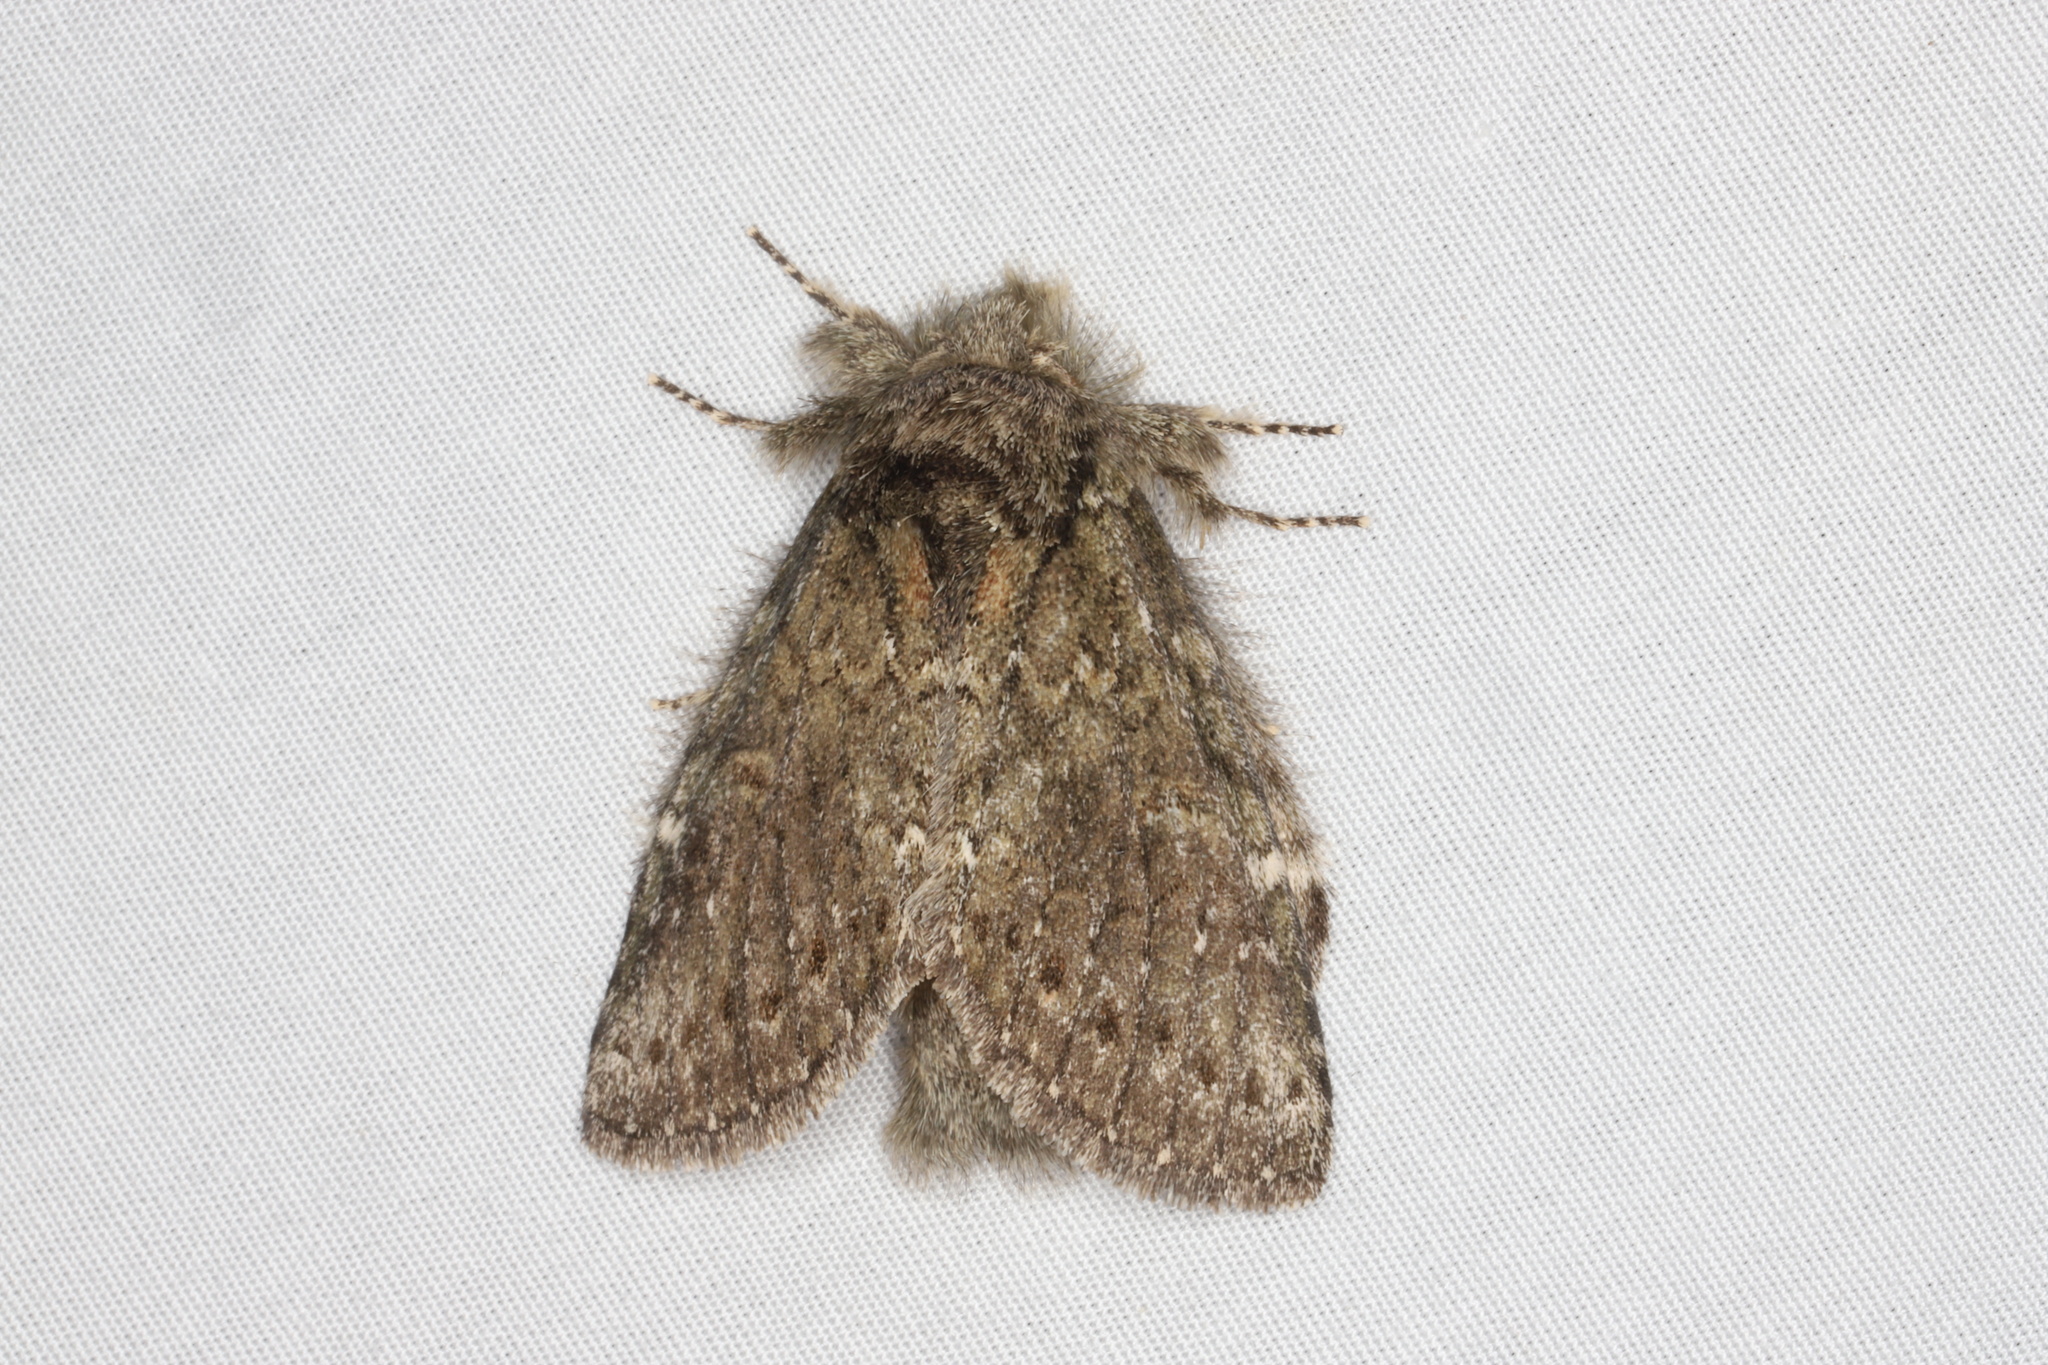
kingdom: Animalia
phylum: Arthropoda
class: Insecta
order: Lepidoptera
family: Notodontidae
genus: Disphragis
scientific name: Disphragis Cecrita guttivitta
